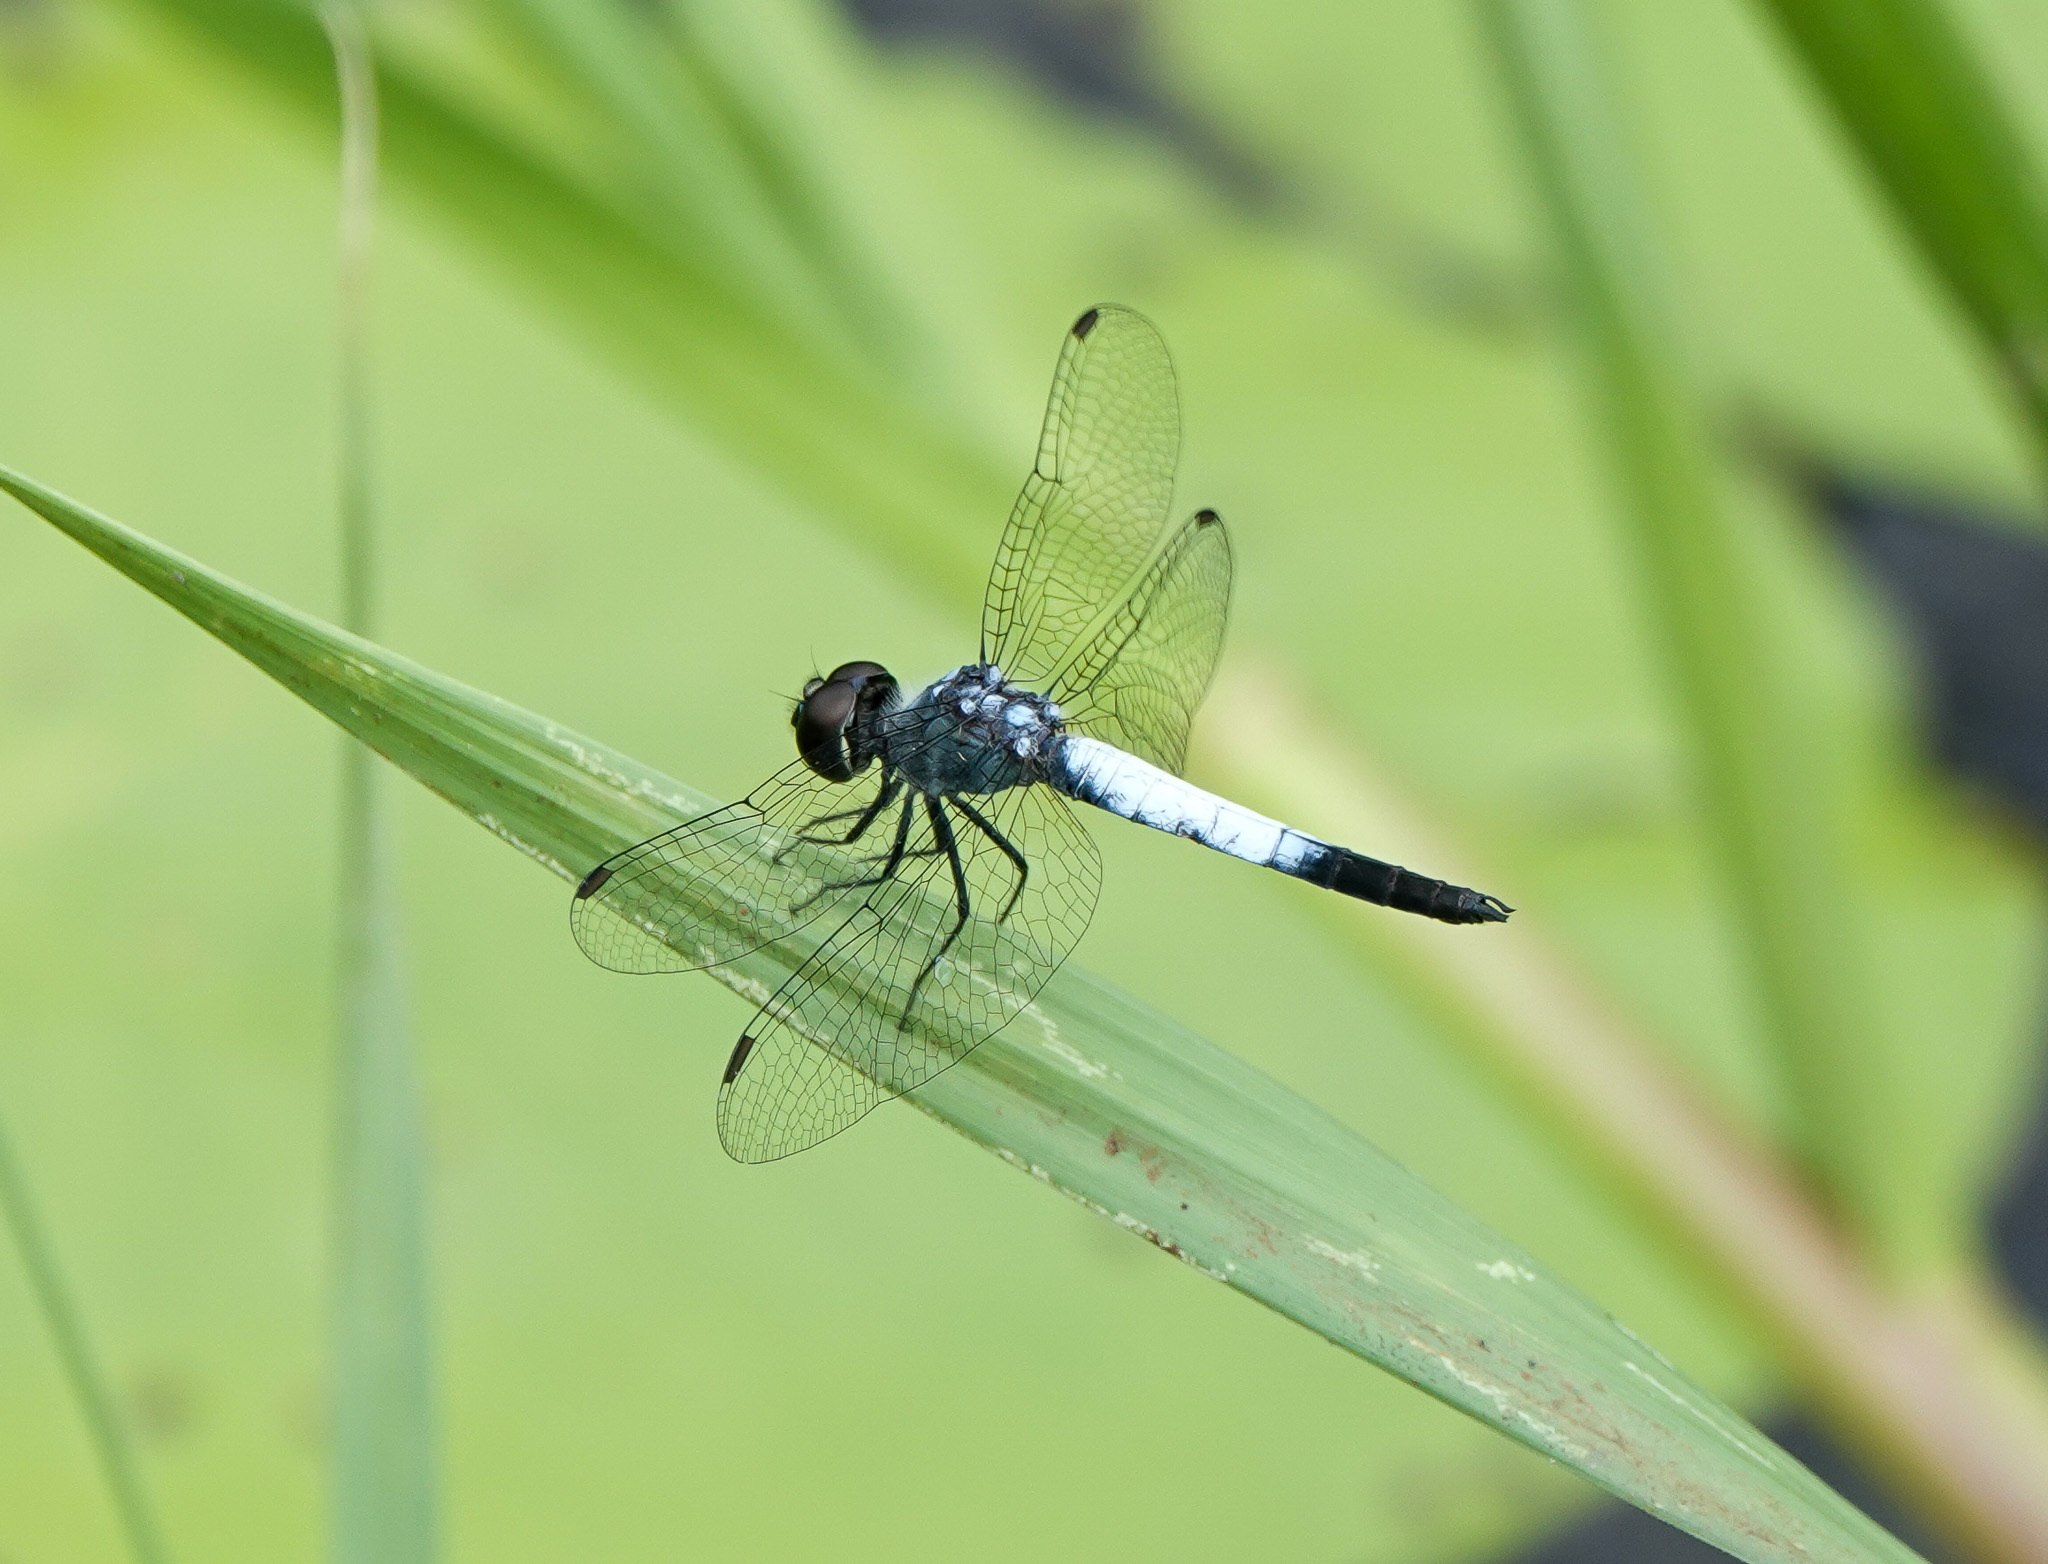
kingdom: Animalia
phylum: Arthropoda
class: Insecta
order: Odonata
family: Libellulidae
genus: Brachydiplax
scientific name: Brachydiplax farinosa
